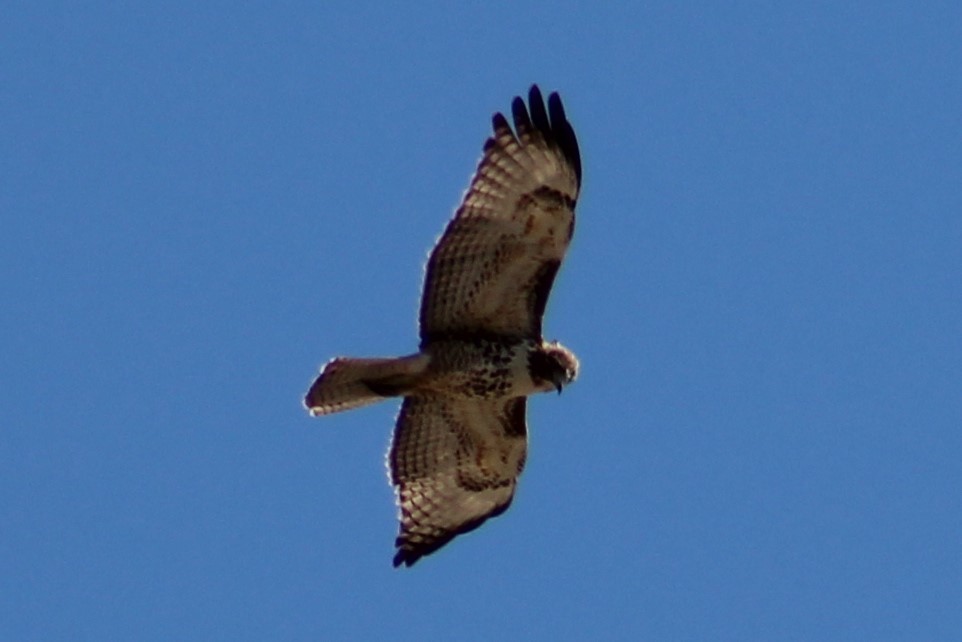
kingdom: Animalia
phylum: Chordata
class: Aves
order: Accipitriformes
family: Accipitridae
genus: Buteo
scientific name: Buteo jamaicensis
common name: Red-tailed hawk
